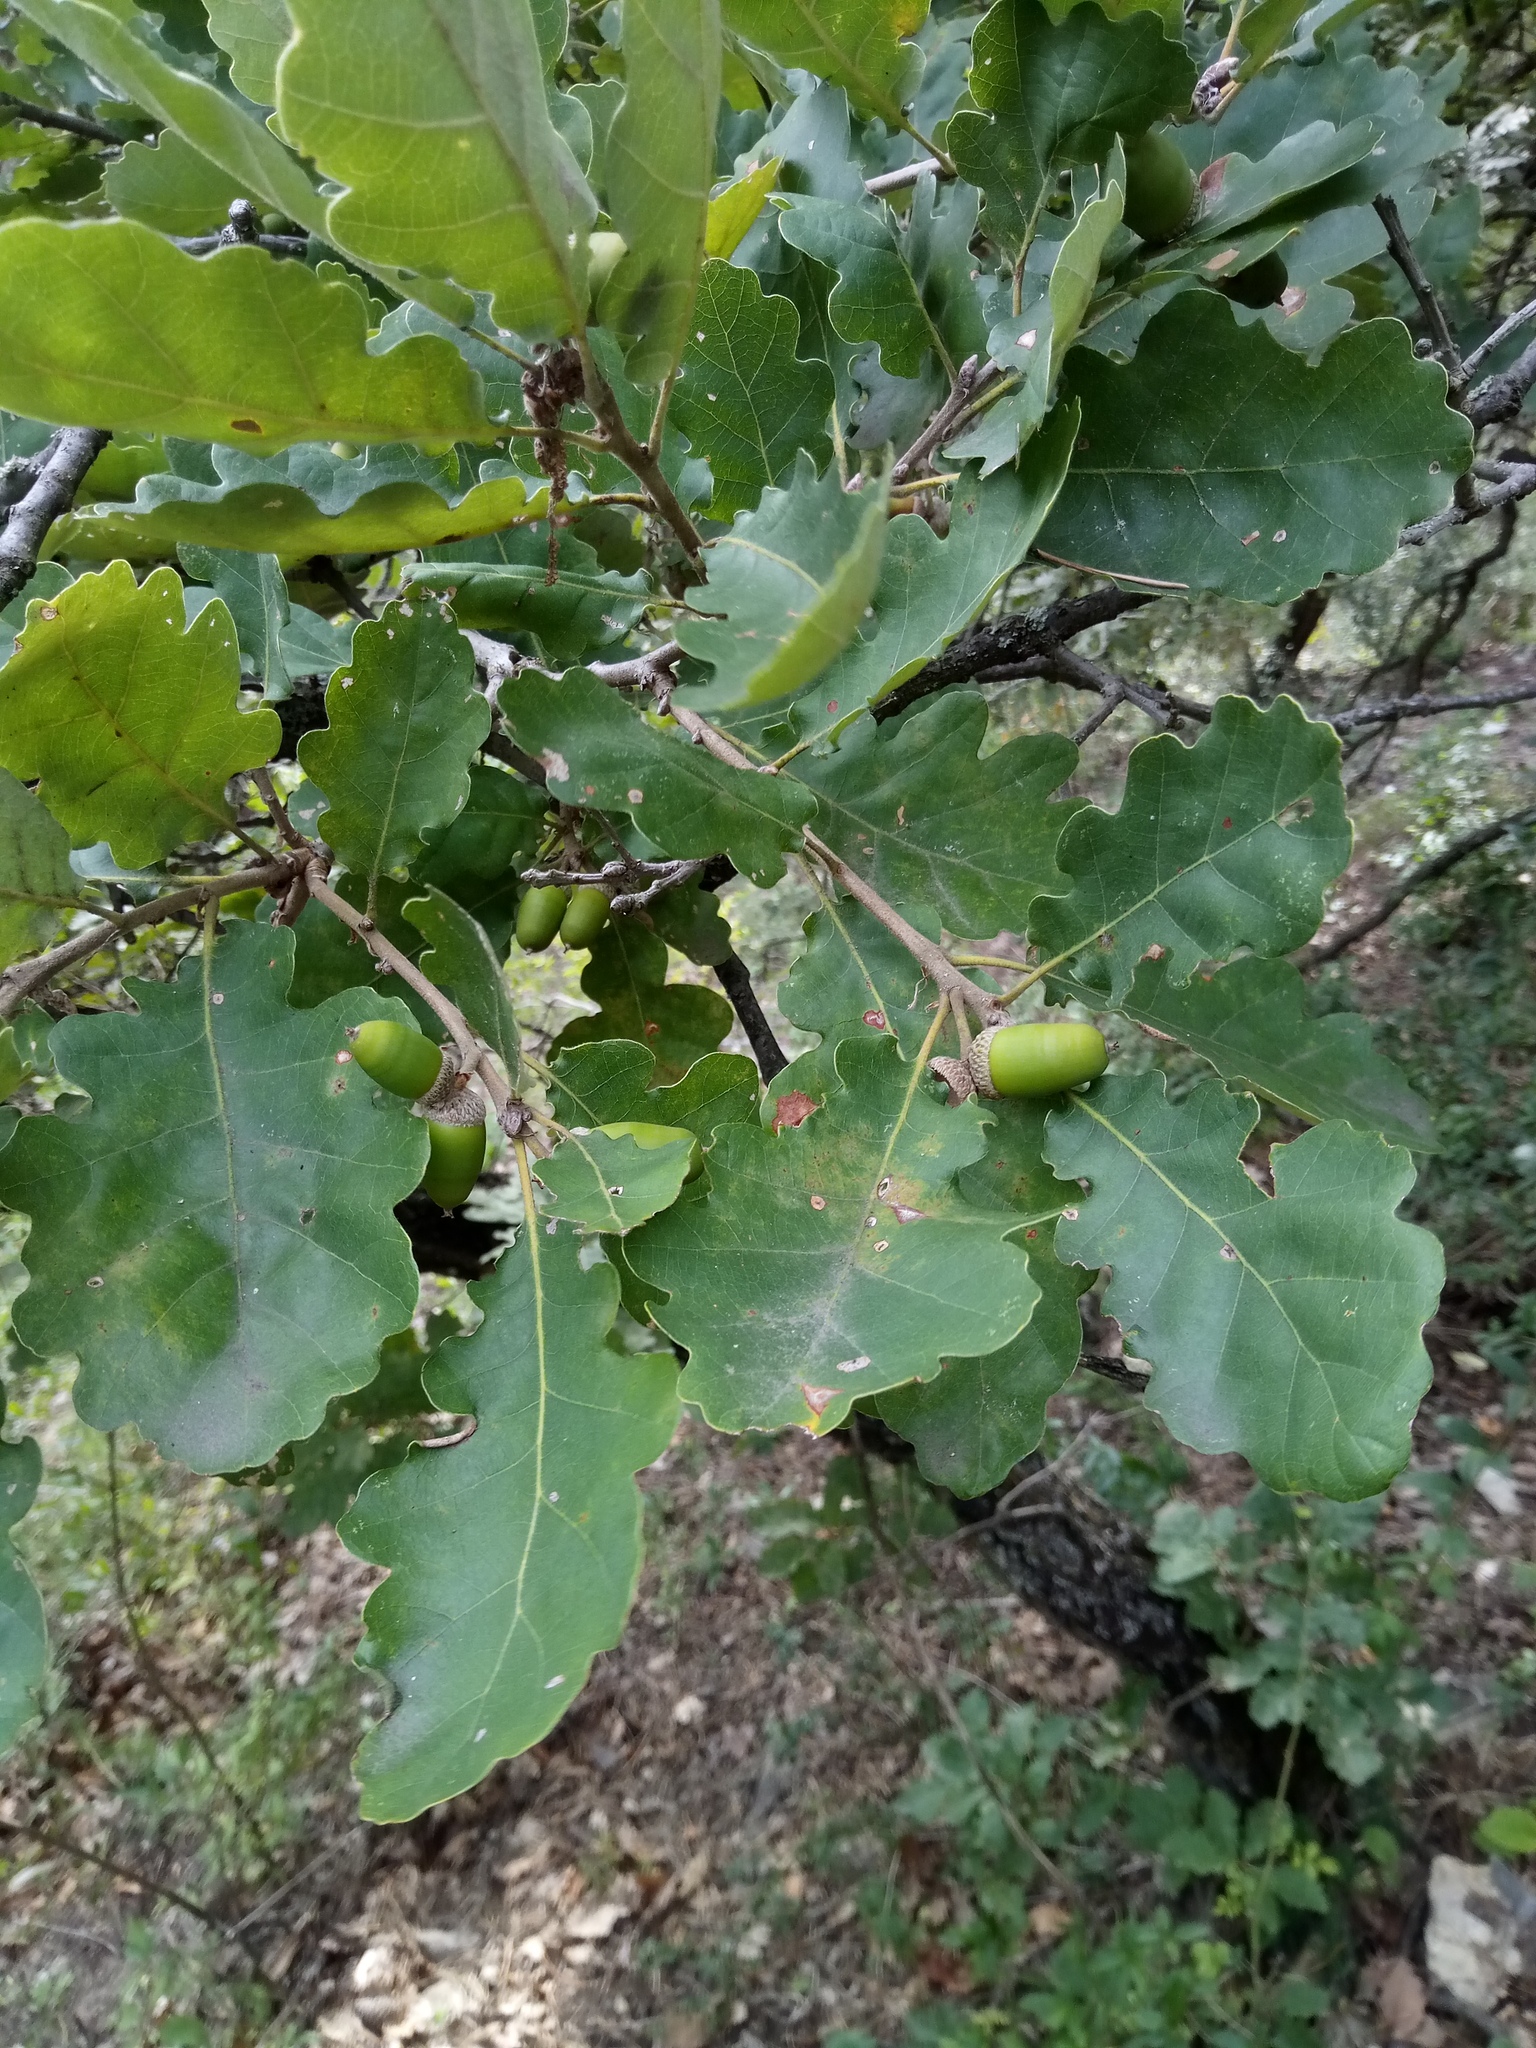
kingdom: Plantae
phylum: Tracheophyta
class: Magnoliopsida
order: Fagales
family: Fagaceae
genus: Quercus
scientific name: Quercus pubescens
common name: Downy oak
